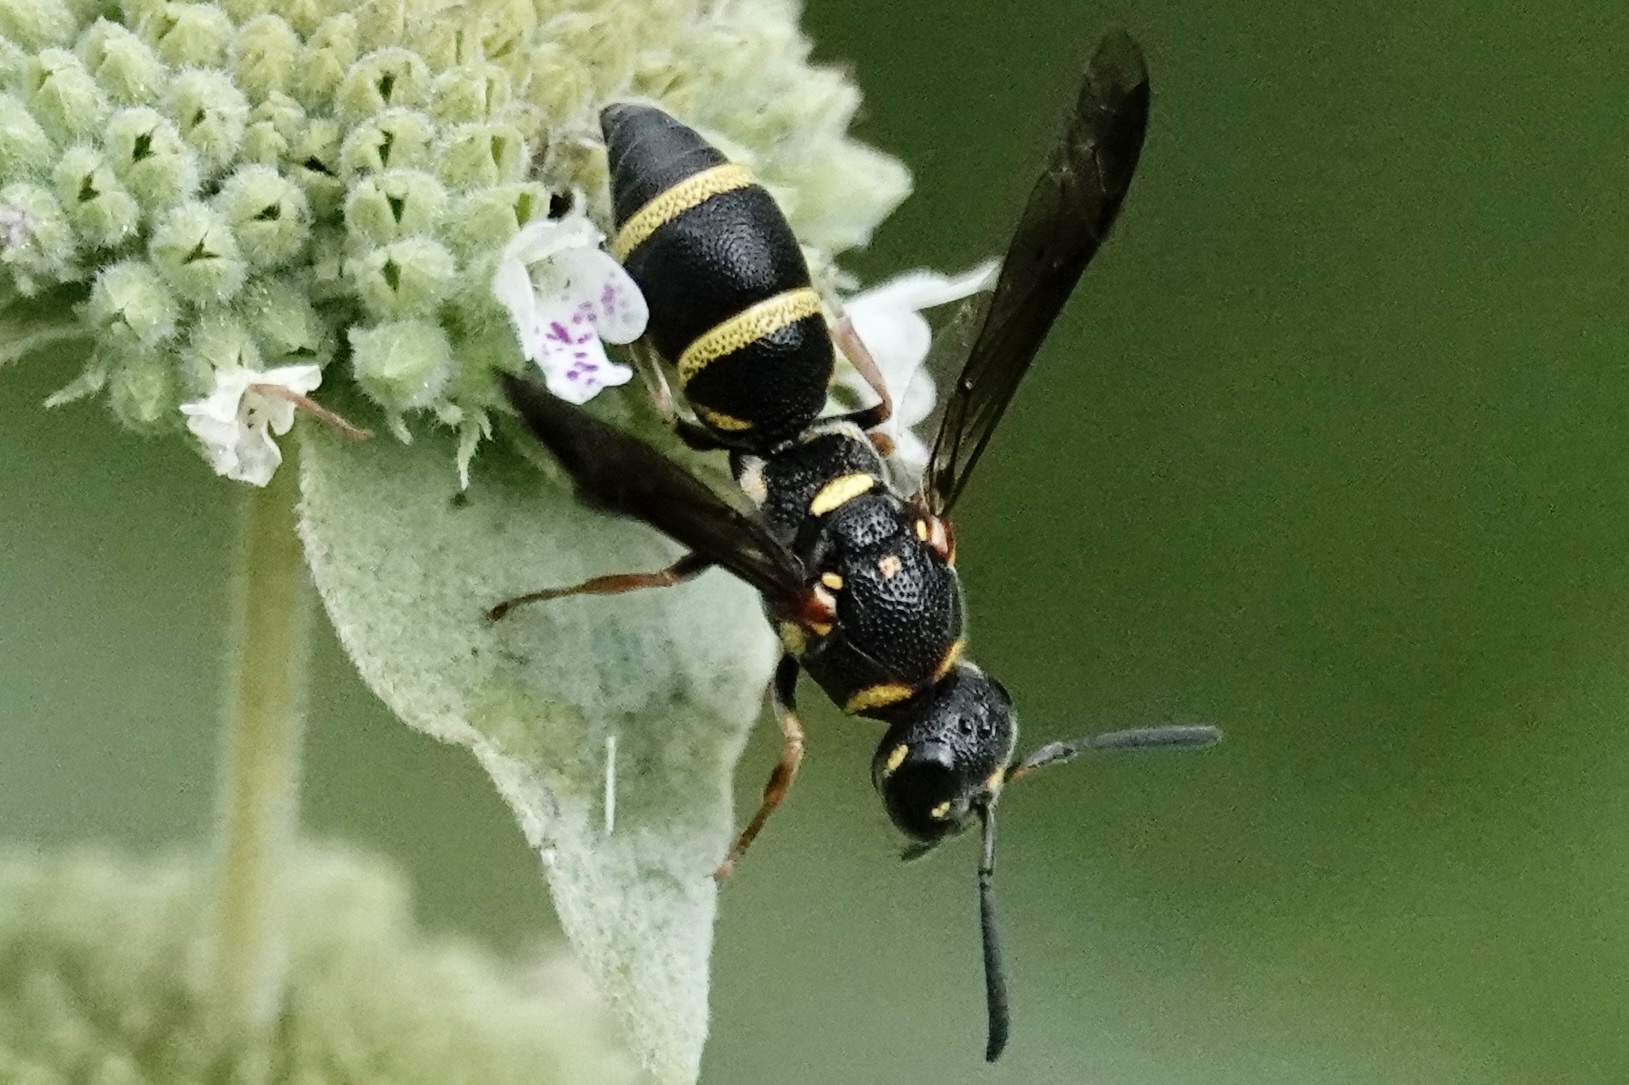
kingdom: Animalia
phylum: Arthropoda
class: Insecta
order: Hymenoptera
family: Eumenidae
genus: Parancistrocerus
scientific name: Parancistrocerus fulvipes
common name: Potter wasp
